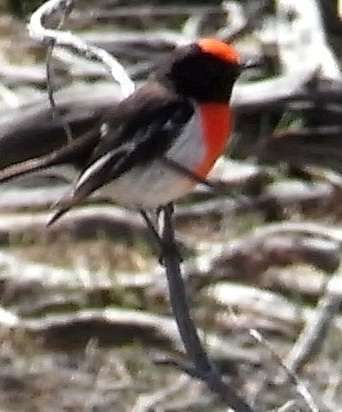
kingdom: Animalia
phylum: Chordata
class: Aves
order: Passeriformes
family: Petroicidae
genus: Petroica
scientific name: Petroica goodenovii
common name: Red-capped robin
